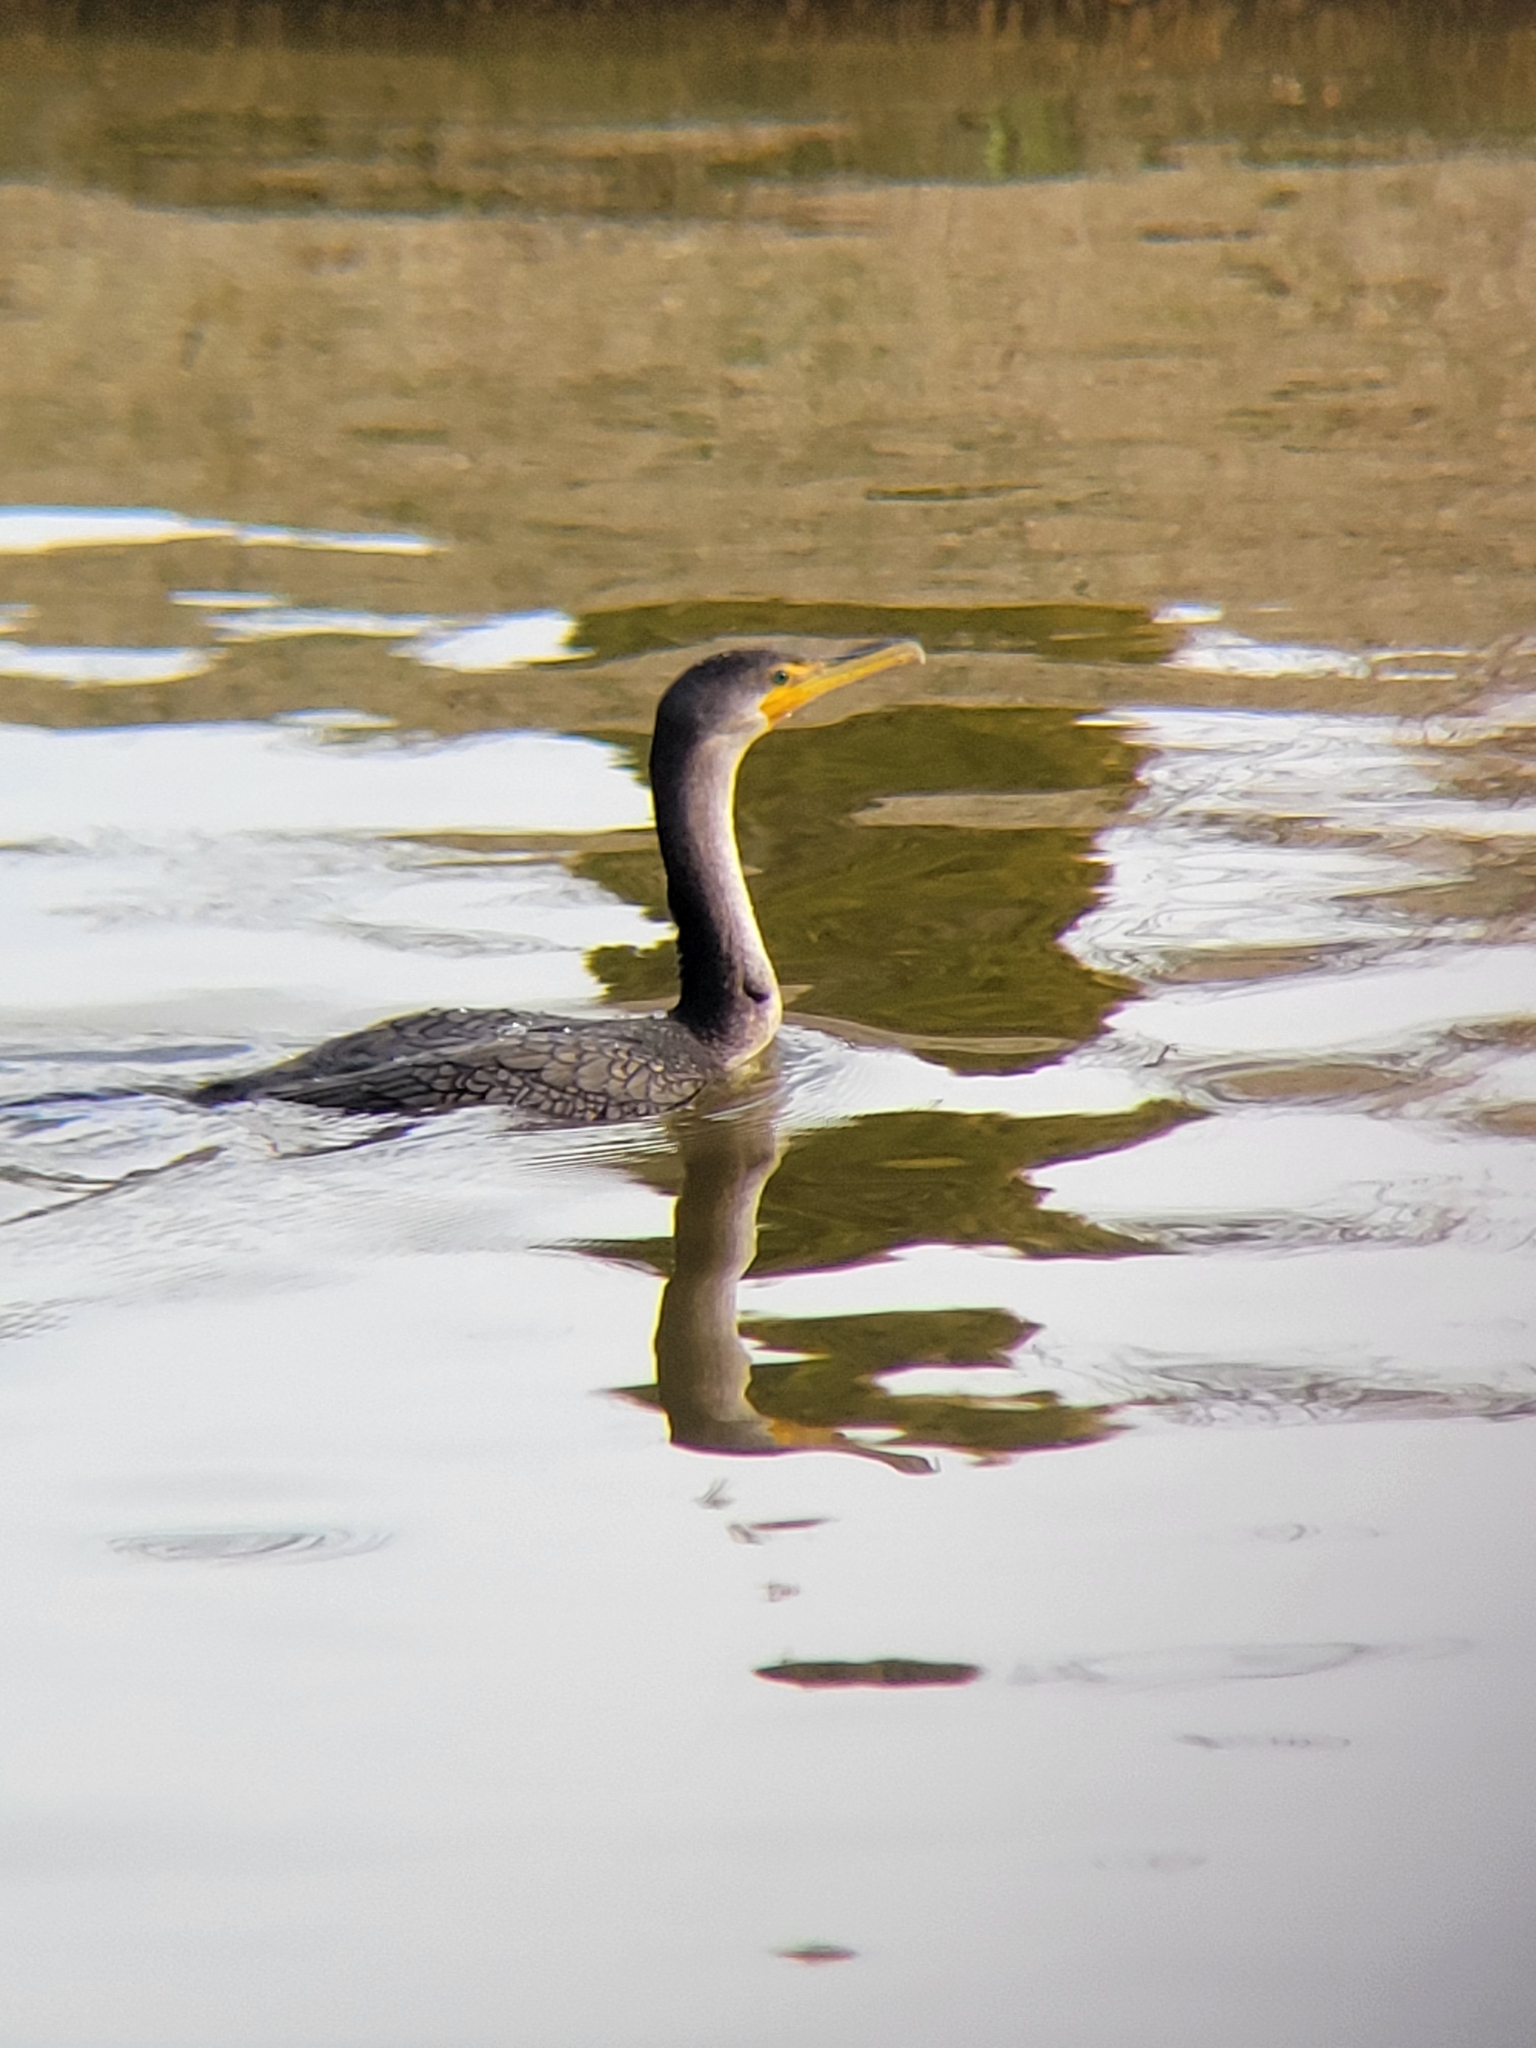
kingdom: Animalia
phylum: Chordata
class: Aves
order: Suliformes
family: Phalacrocoracidae
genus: Phalacrocorax
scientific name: Phalacrocorax auritus
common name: Double-crested cormorant
